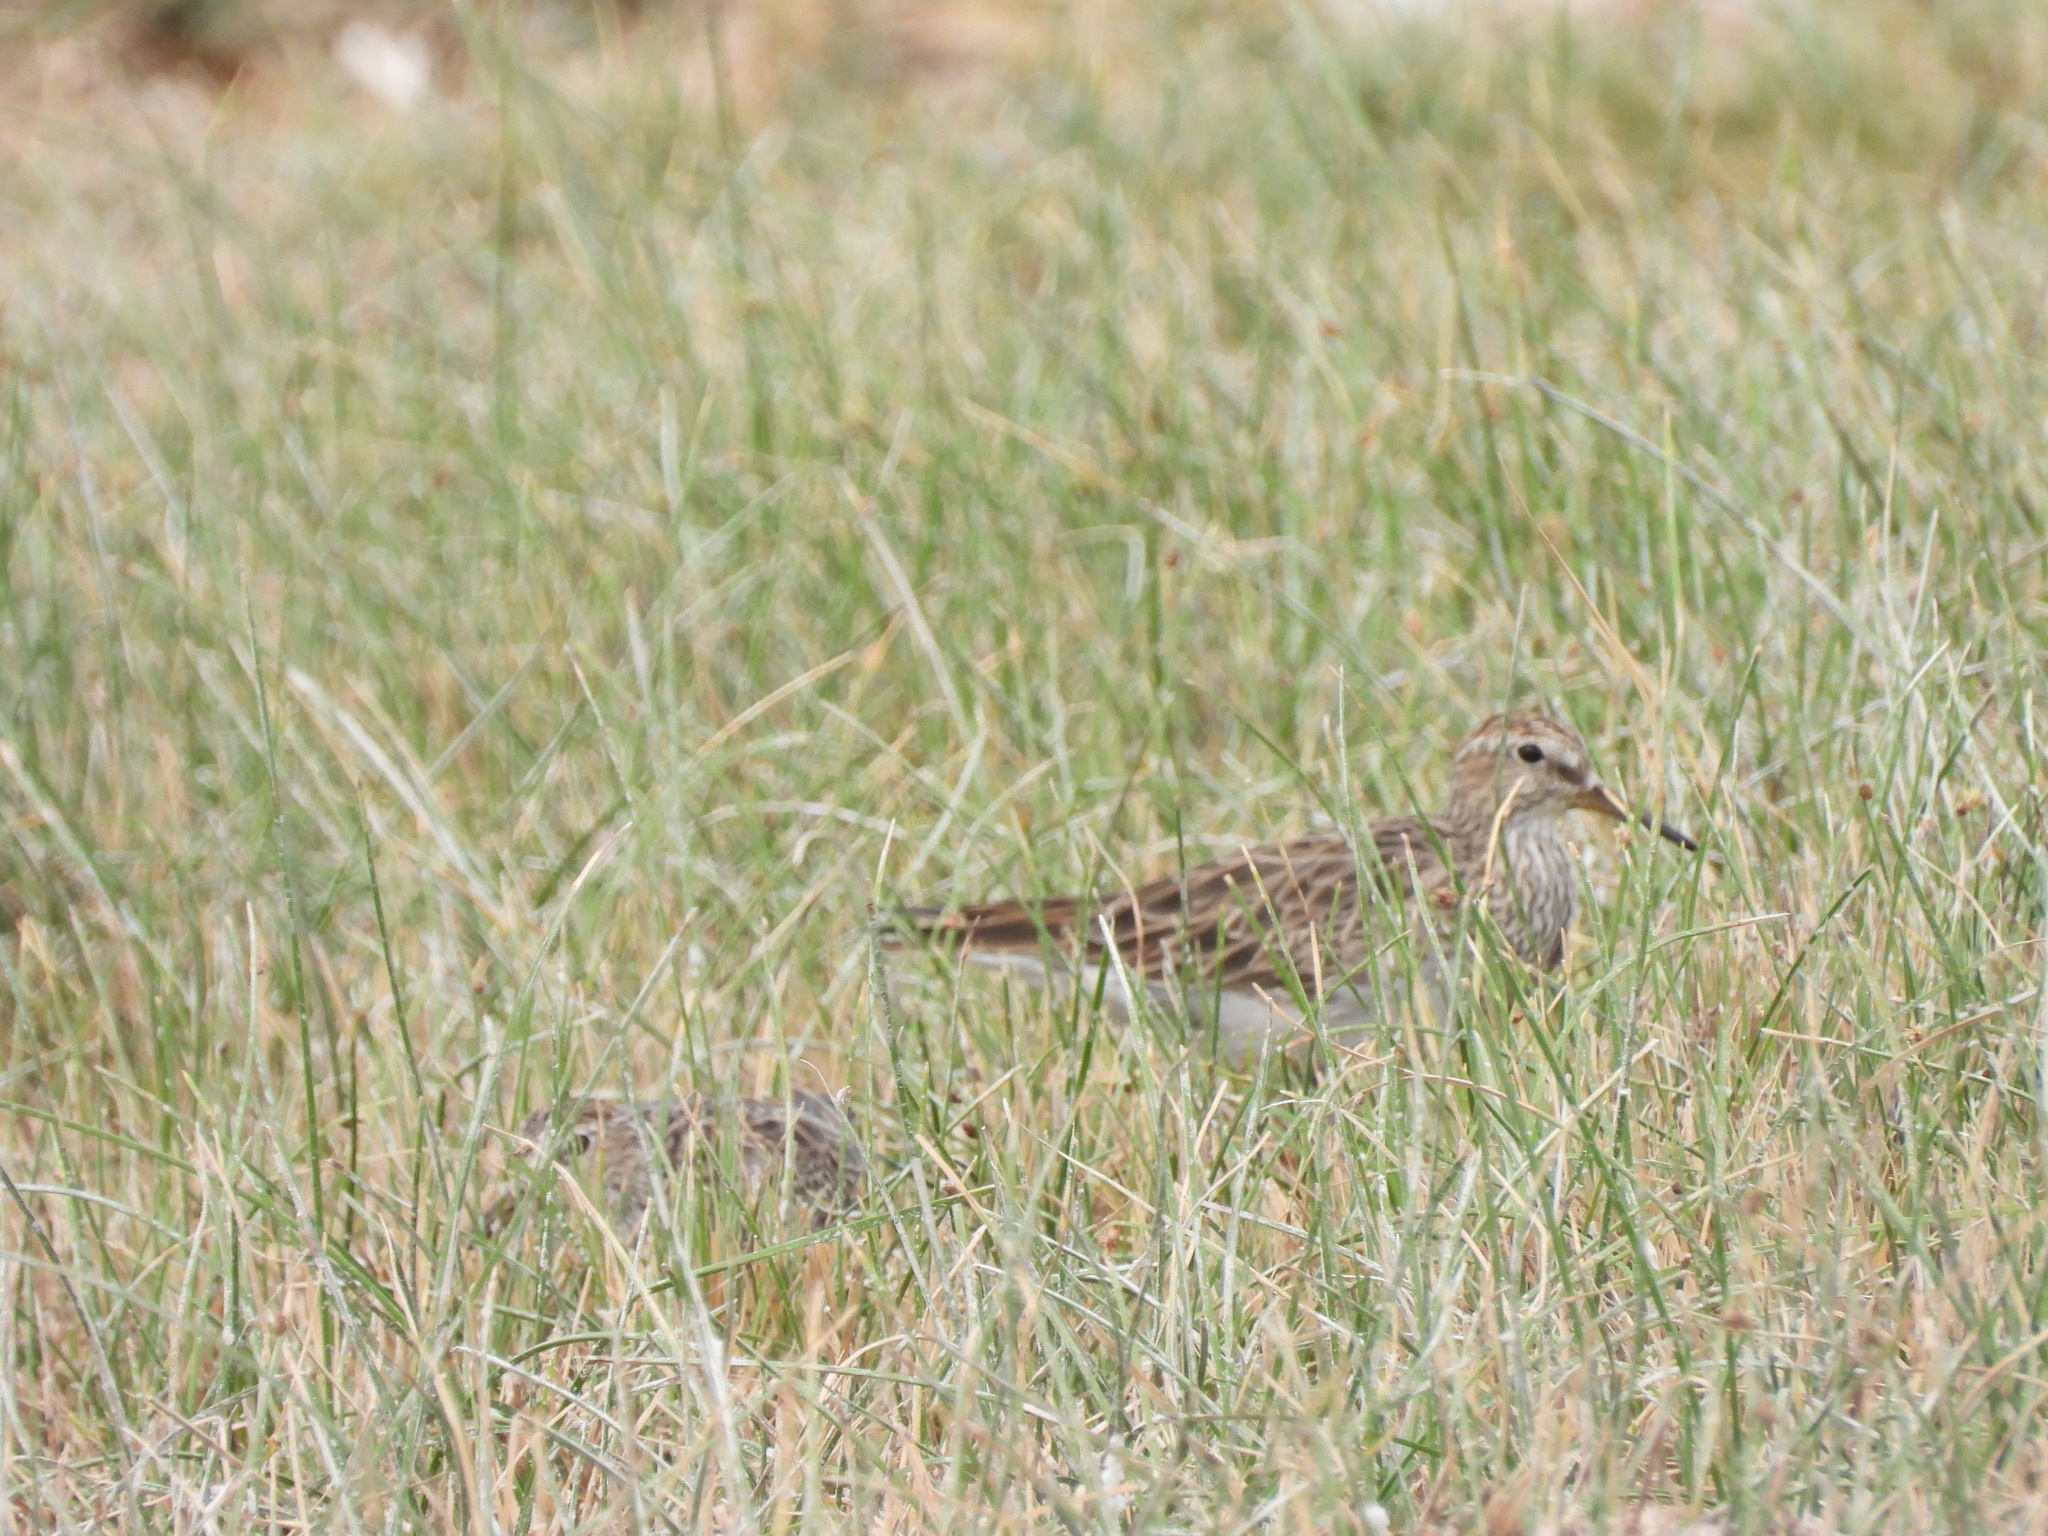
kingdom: Animalia
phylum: Chordata
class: Aves
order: Charadriiformes
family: Scolopacidae
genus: Calidris
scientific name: Calidris melanotos
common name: Pectoral sandpiper
